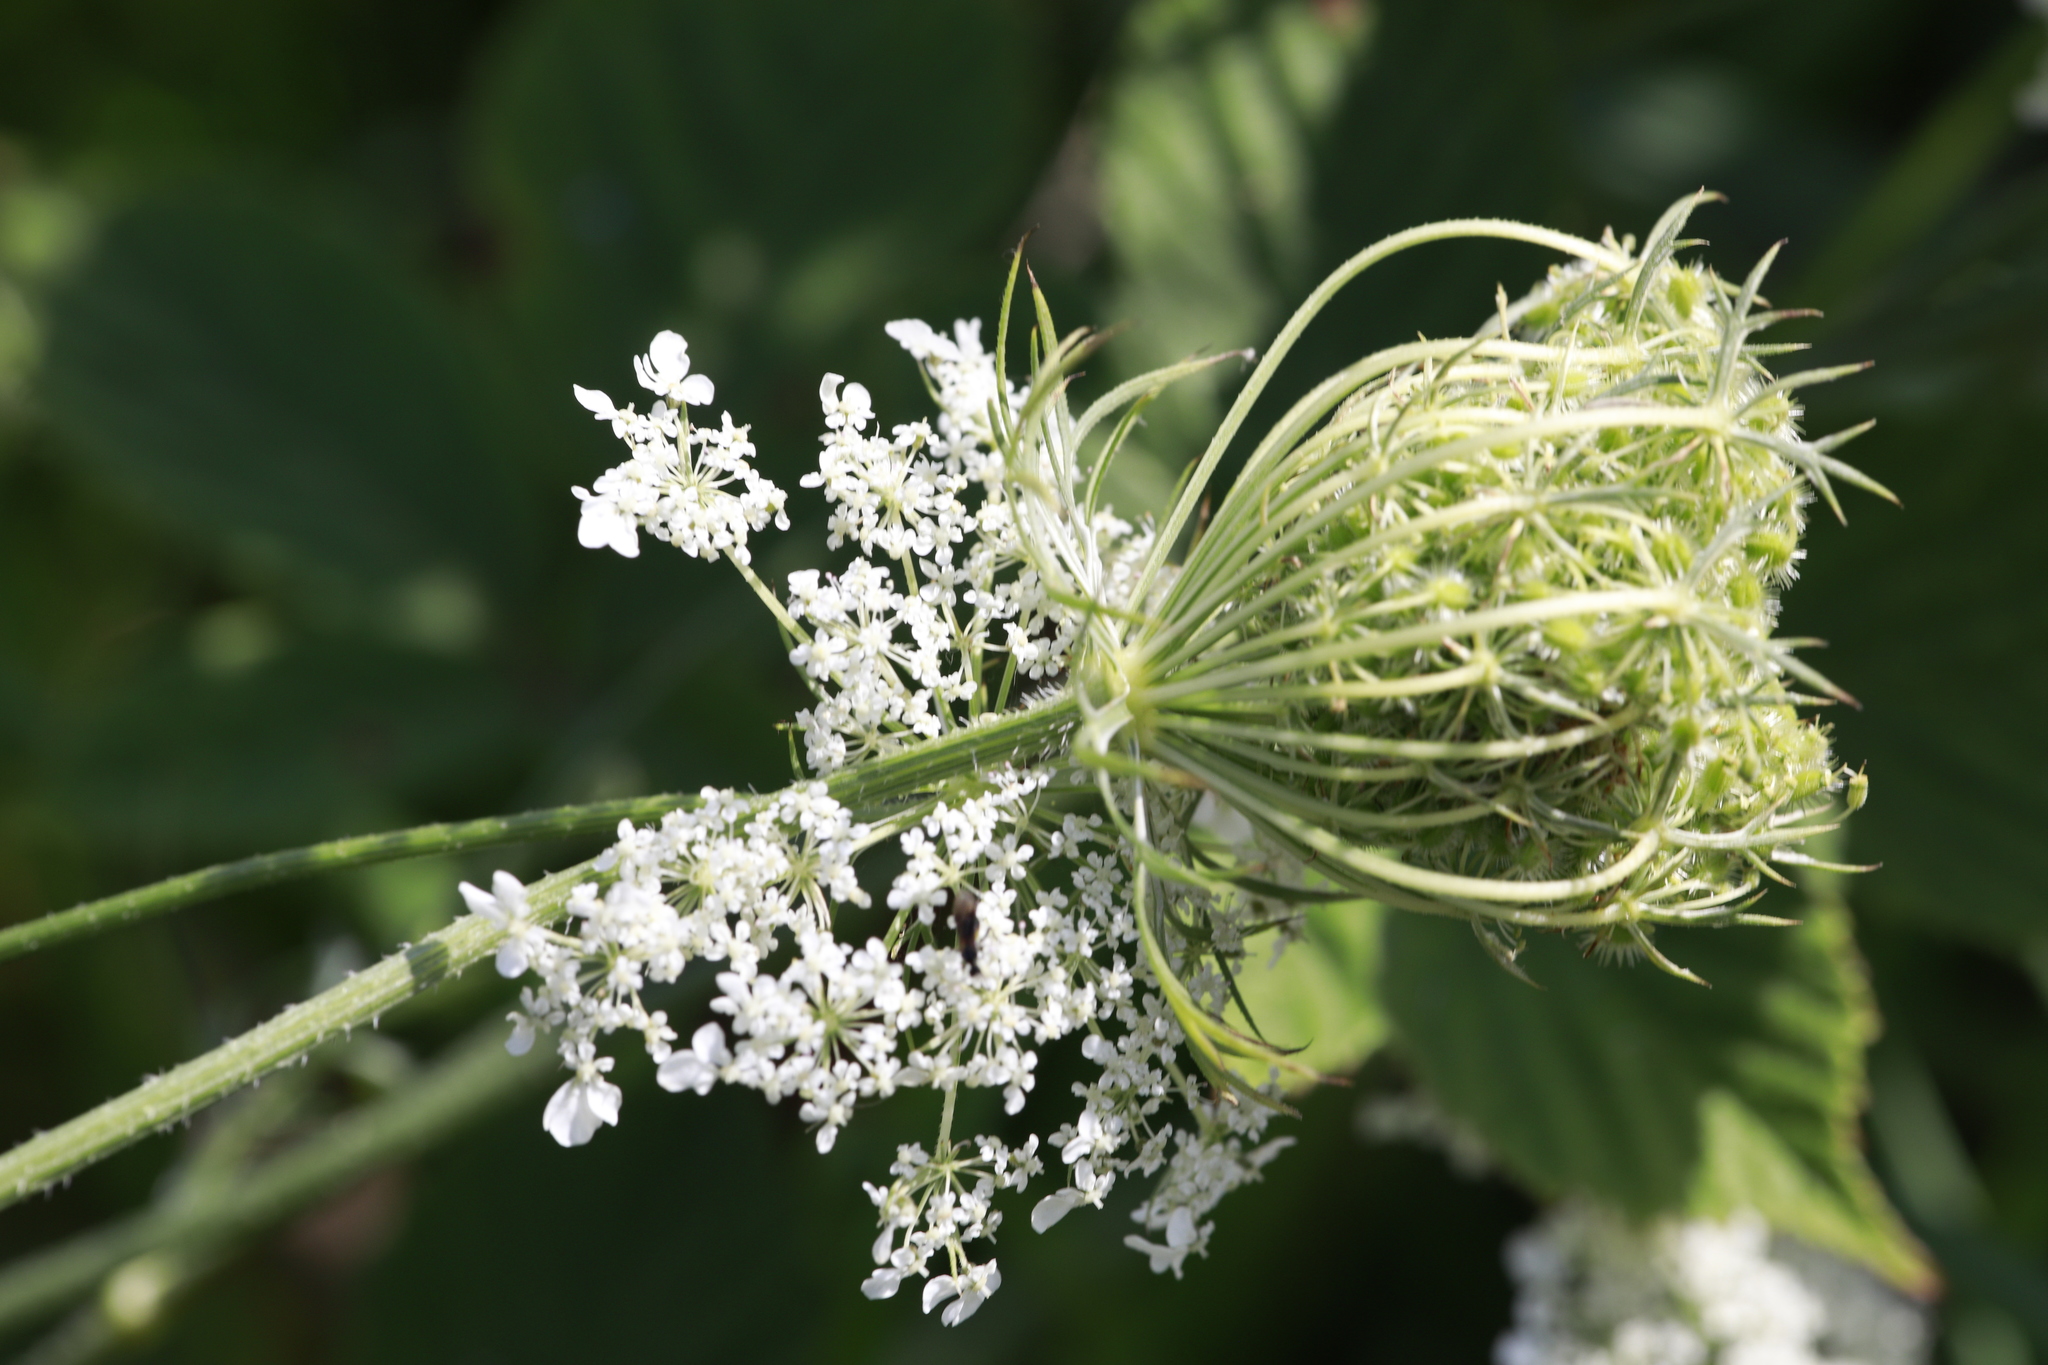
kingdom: Plantae
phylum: Tracheophyta
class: Magnoliopsida
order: Apiales
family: Apiaceae
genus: Daucus
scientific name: Daucus carota
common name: Wild carrot
